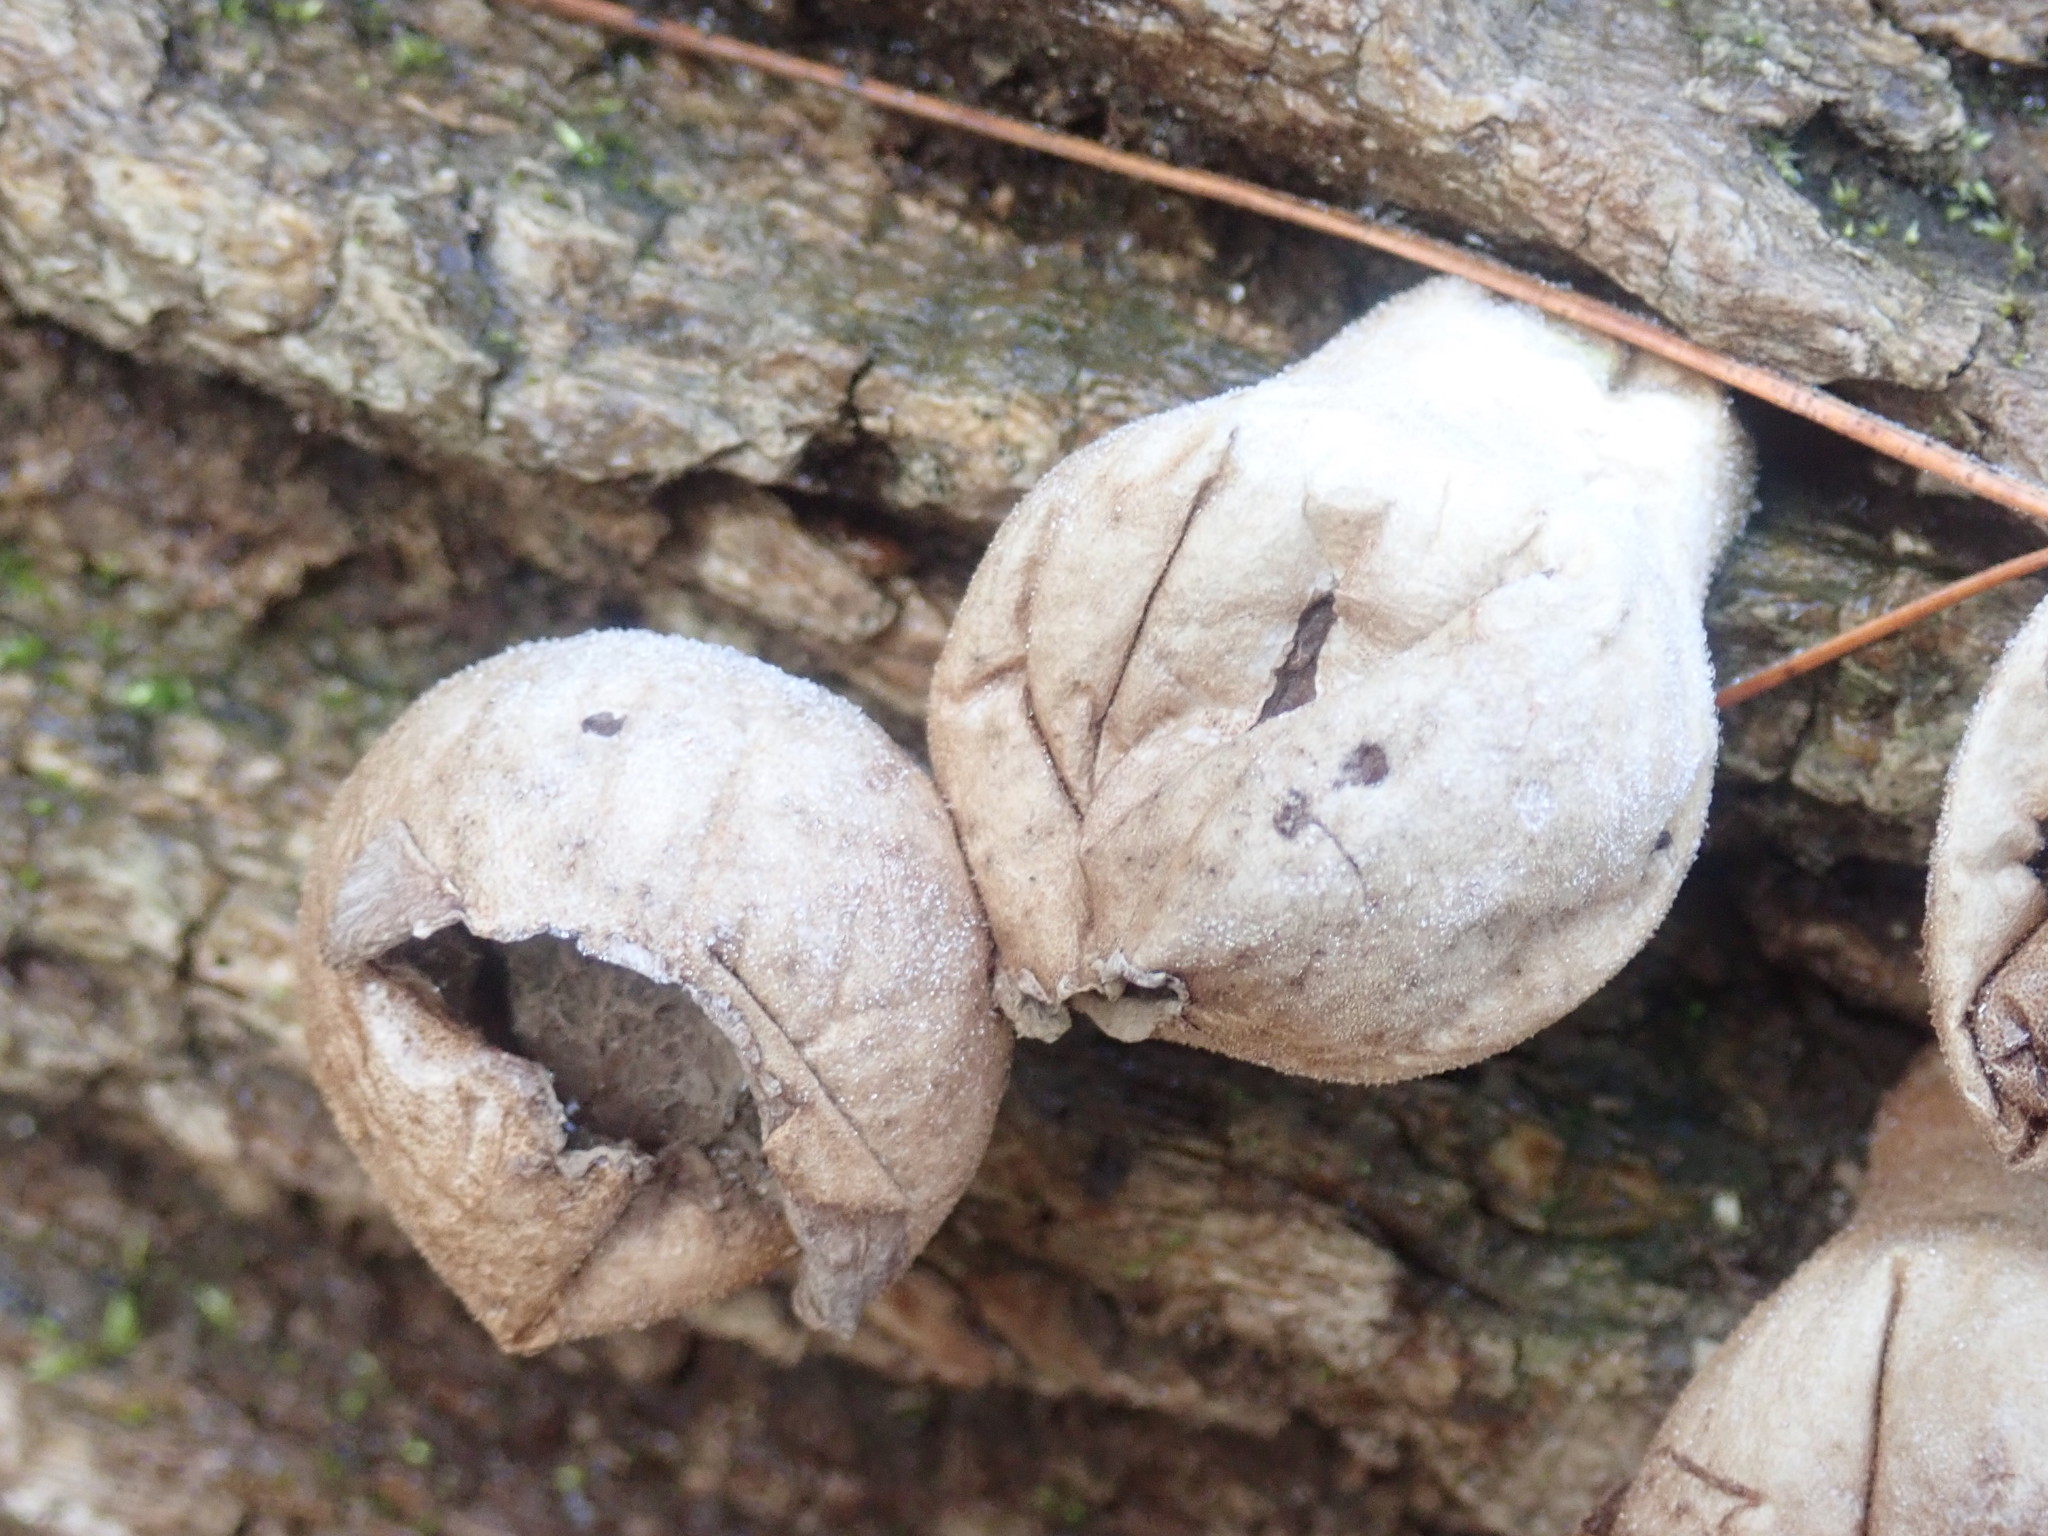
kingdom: Fungi
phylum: Basidiomycota
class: Agaricomycetes
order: Agaricales
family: Lycoperdaceae
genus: Apioperdon
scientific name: Apioperdon pyriforme
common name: Pear-shaped puffball
